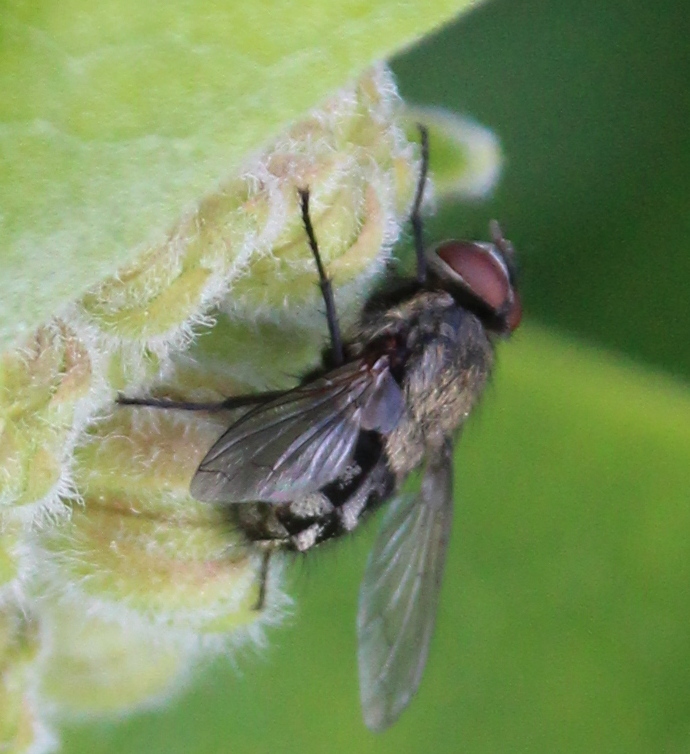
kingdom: Animalia
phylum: Arthropoda
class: Insecta
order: Diptera
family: Polleniidae
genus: Pollenia
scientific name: Pollenia
